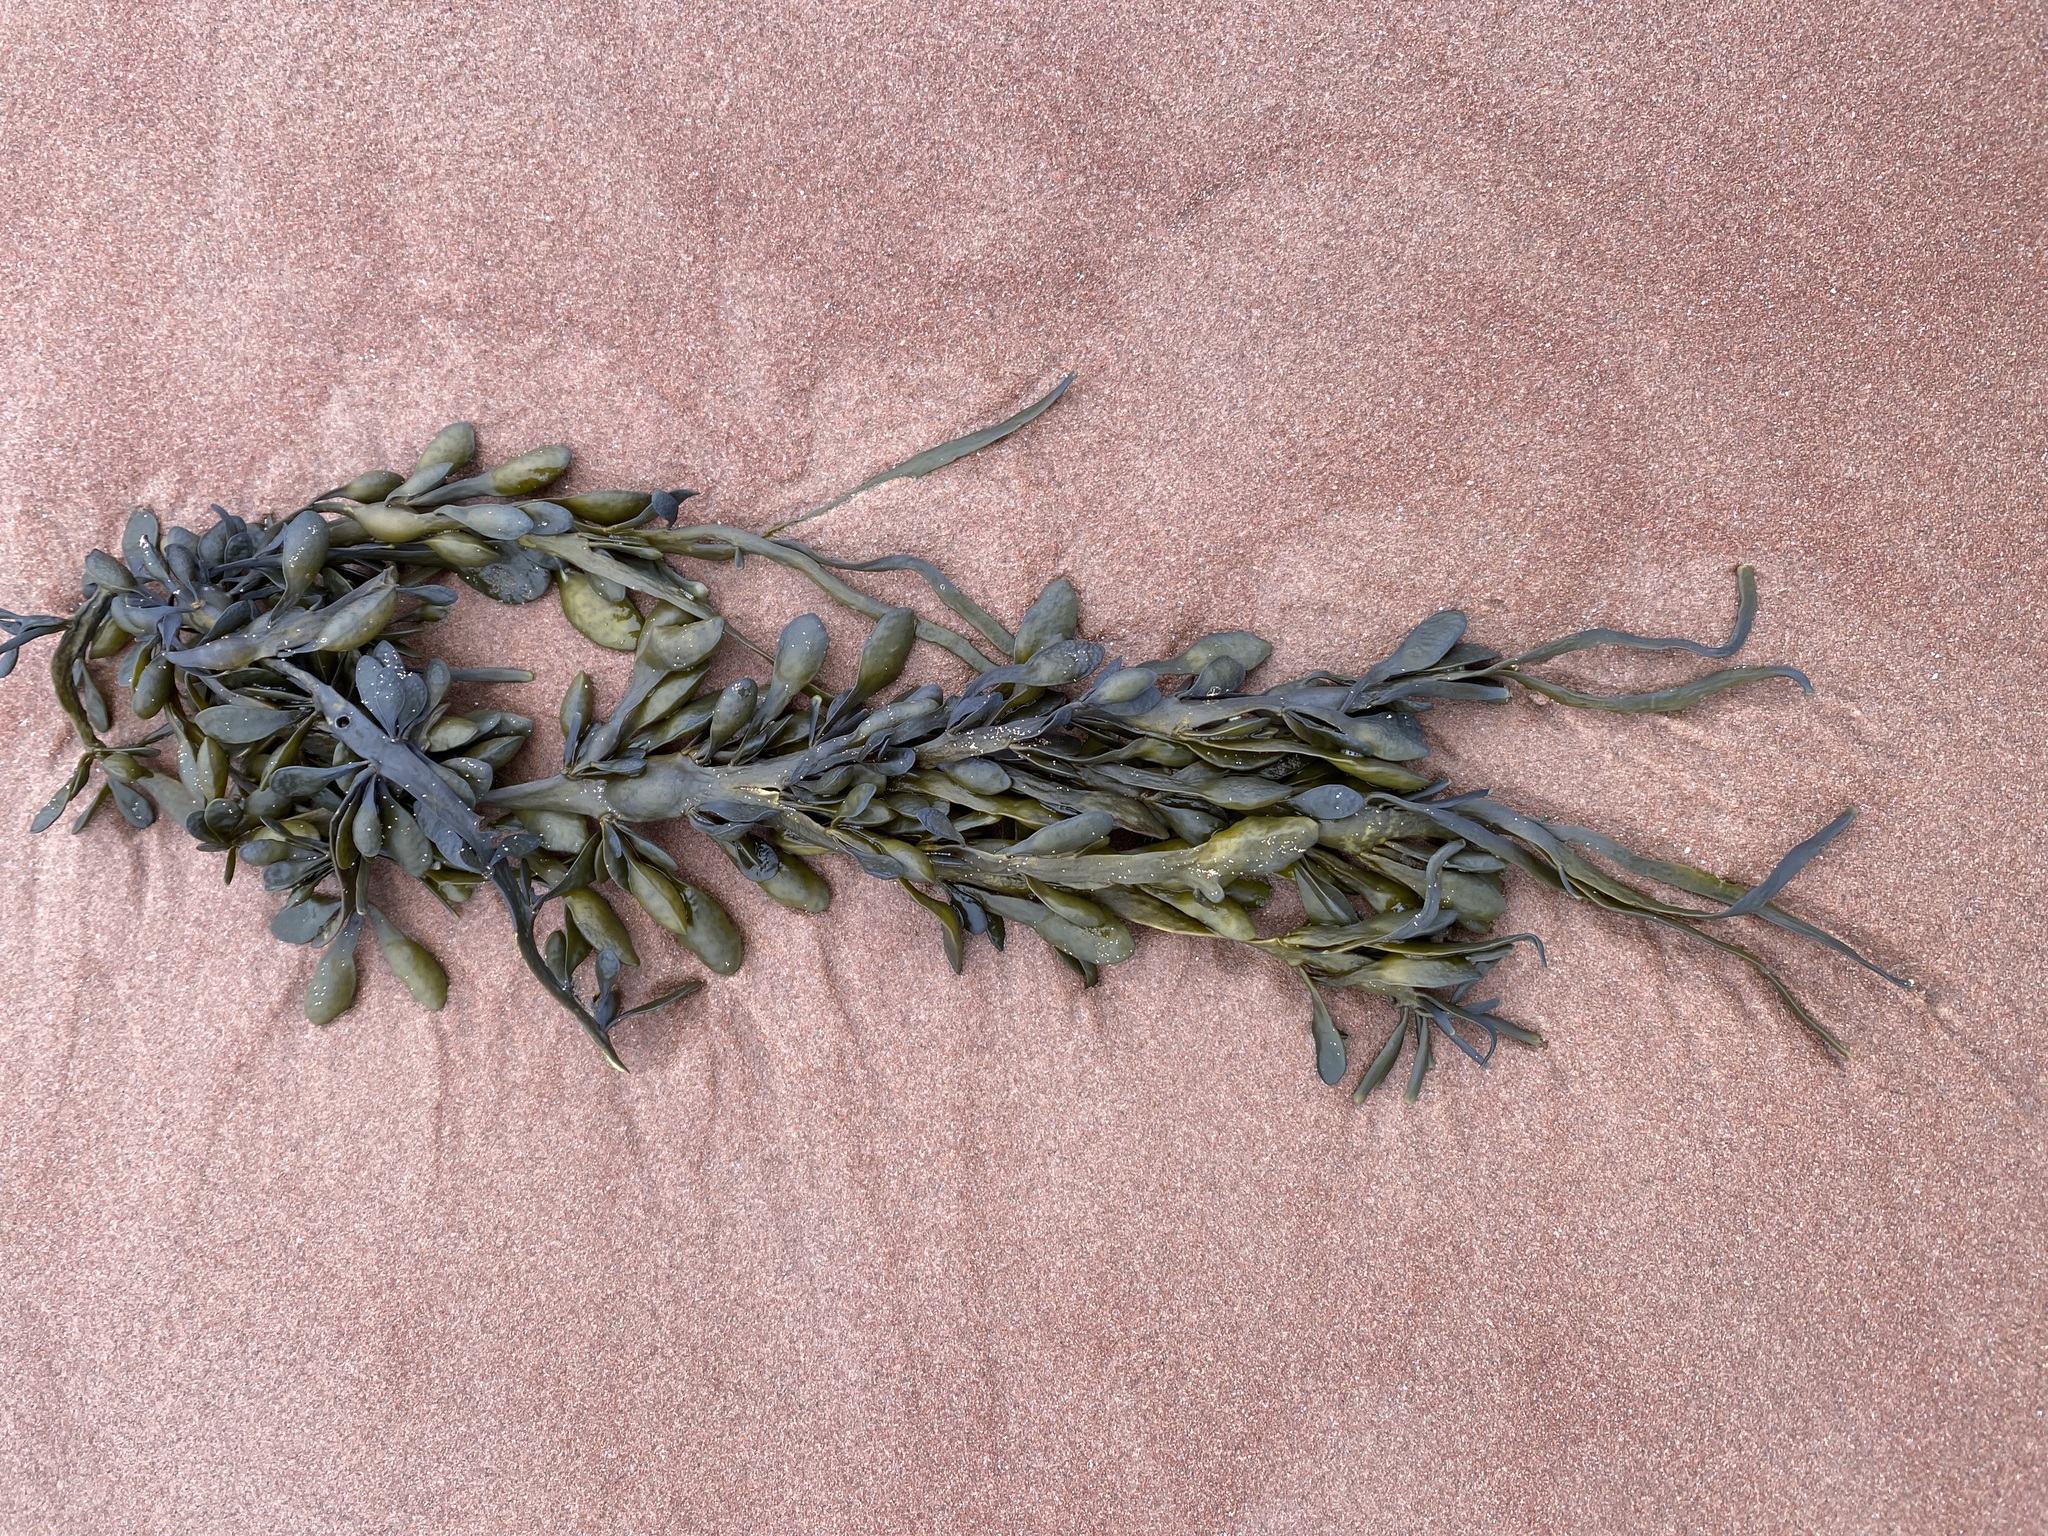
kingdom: Chromista
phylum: Ochrophyta
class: Phaeophyceae
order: Fucales
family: Fucaceae
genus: Ascophyllum
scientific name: Ascophyllum nodosum
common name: Knotted wrack
